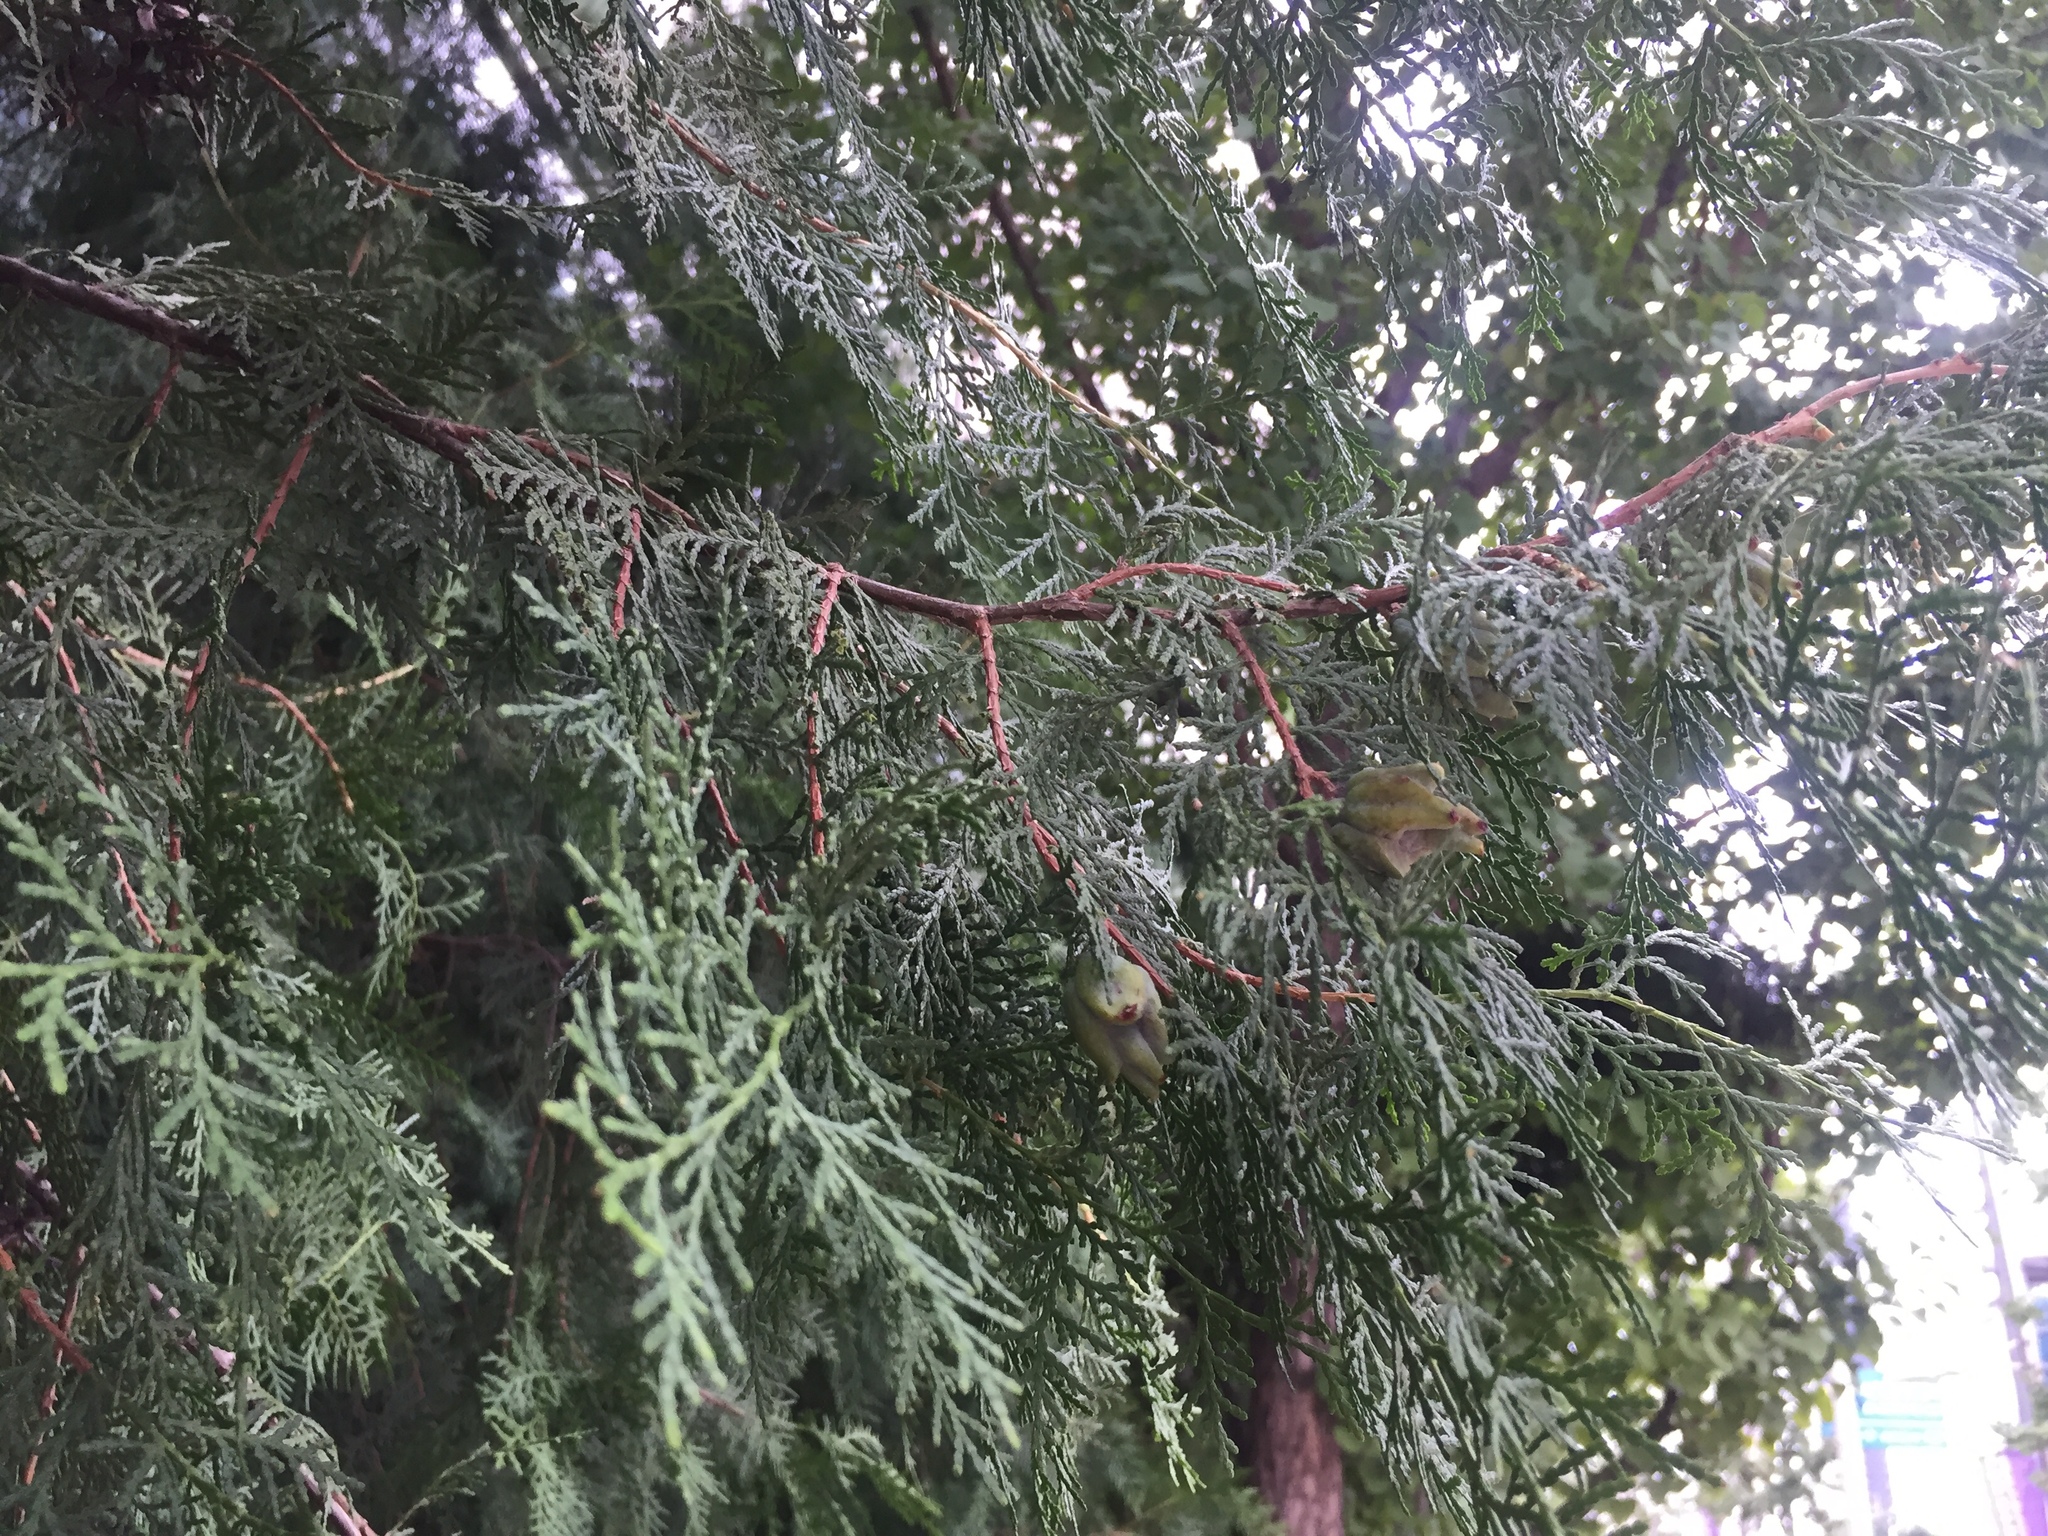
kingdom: Plantae
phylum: Tracheophyta
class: Pinopsida
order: Pinales
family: Cupressaceae
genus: Juniperus
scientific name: Juniperus chinensis
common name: Chinese juniper
